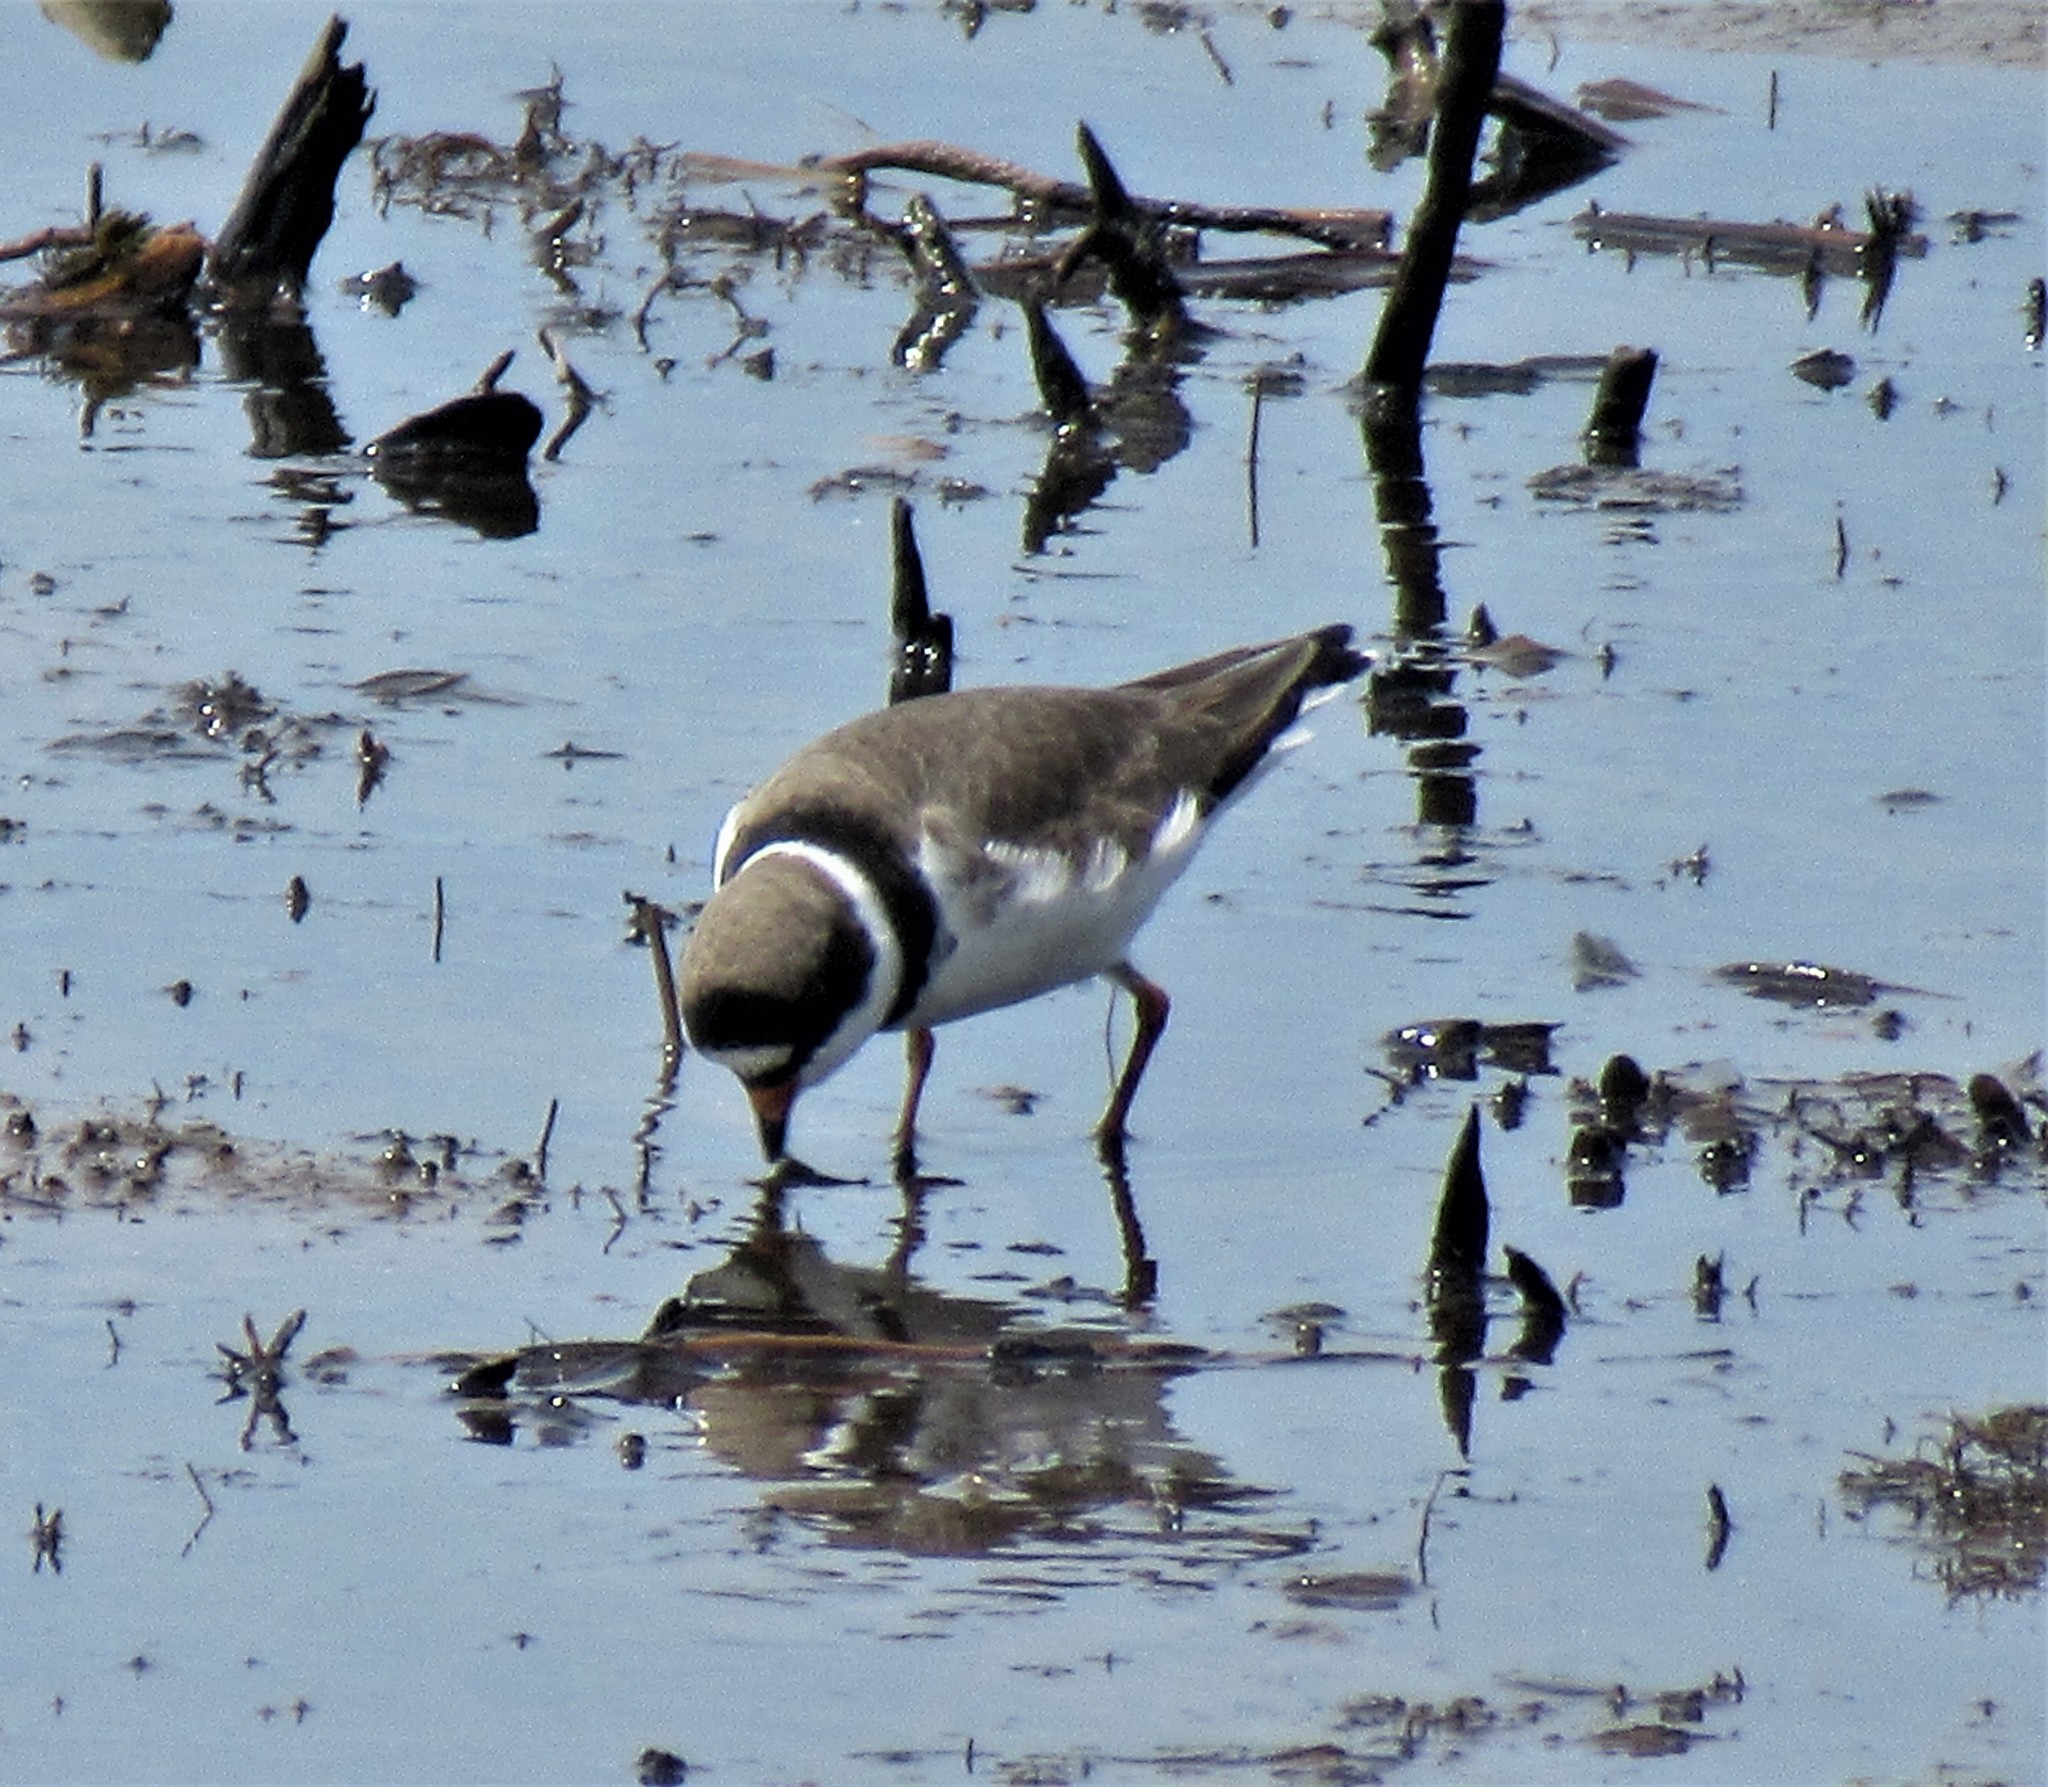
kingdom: Animalia
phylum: Chordata
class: Aves
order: Charadriiformes
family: Charadriidae
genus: Charadrius
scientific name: Charadrius semipalmatus
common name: Semipalmated plover
